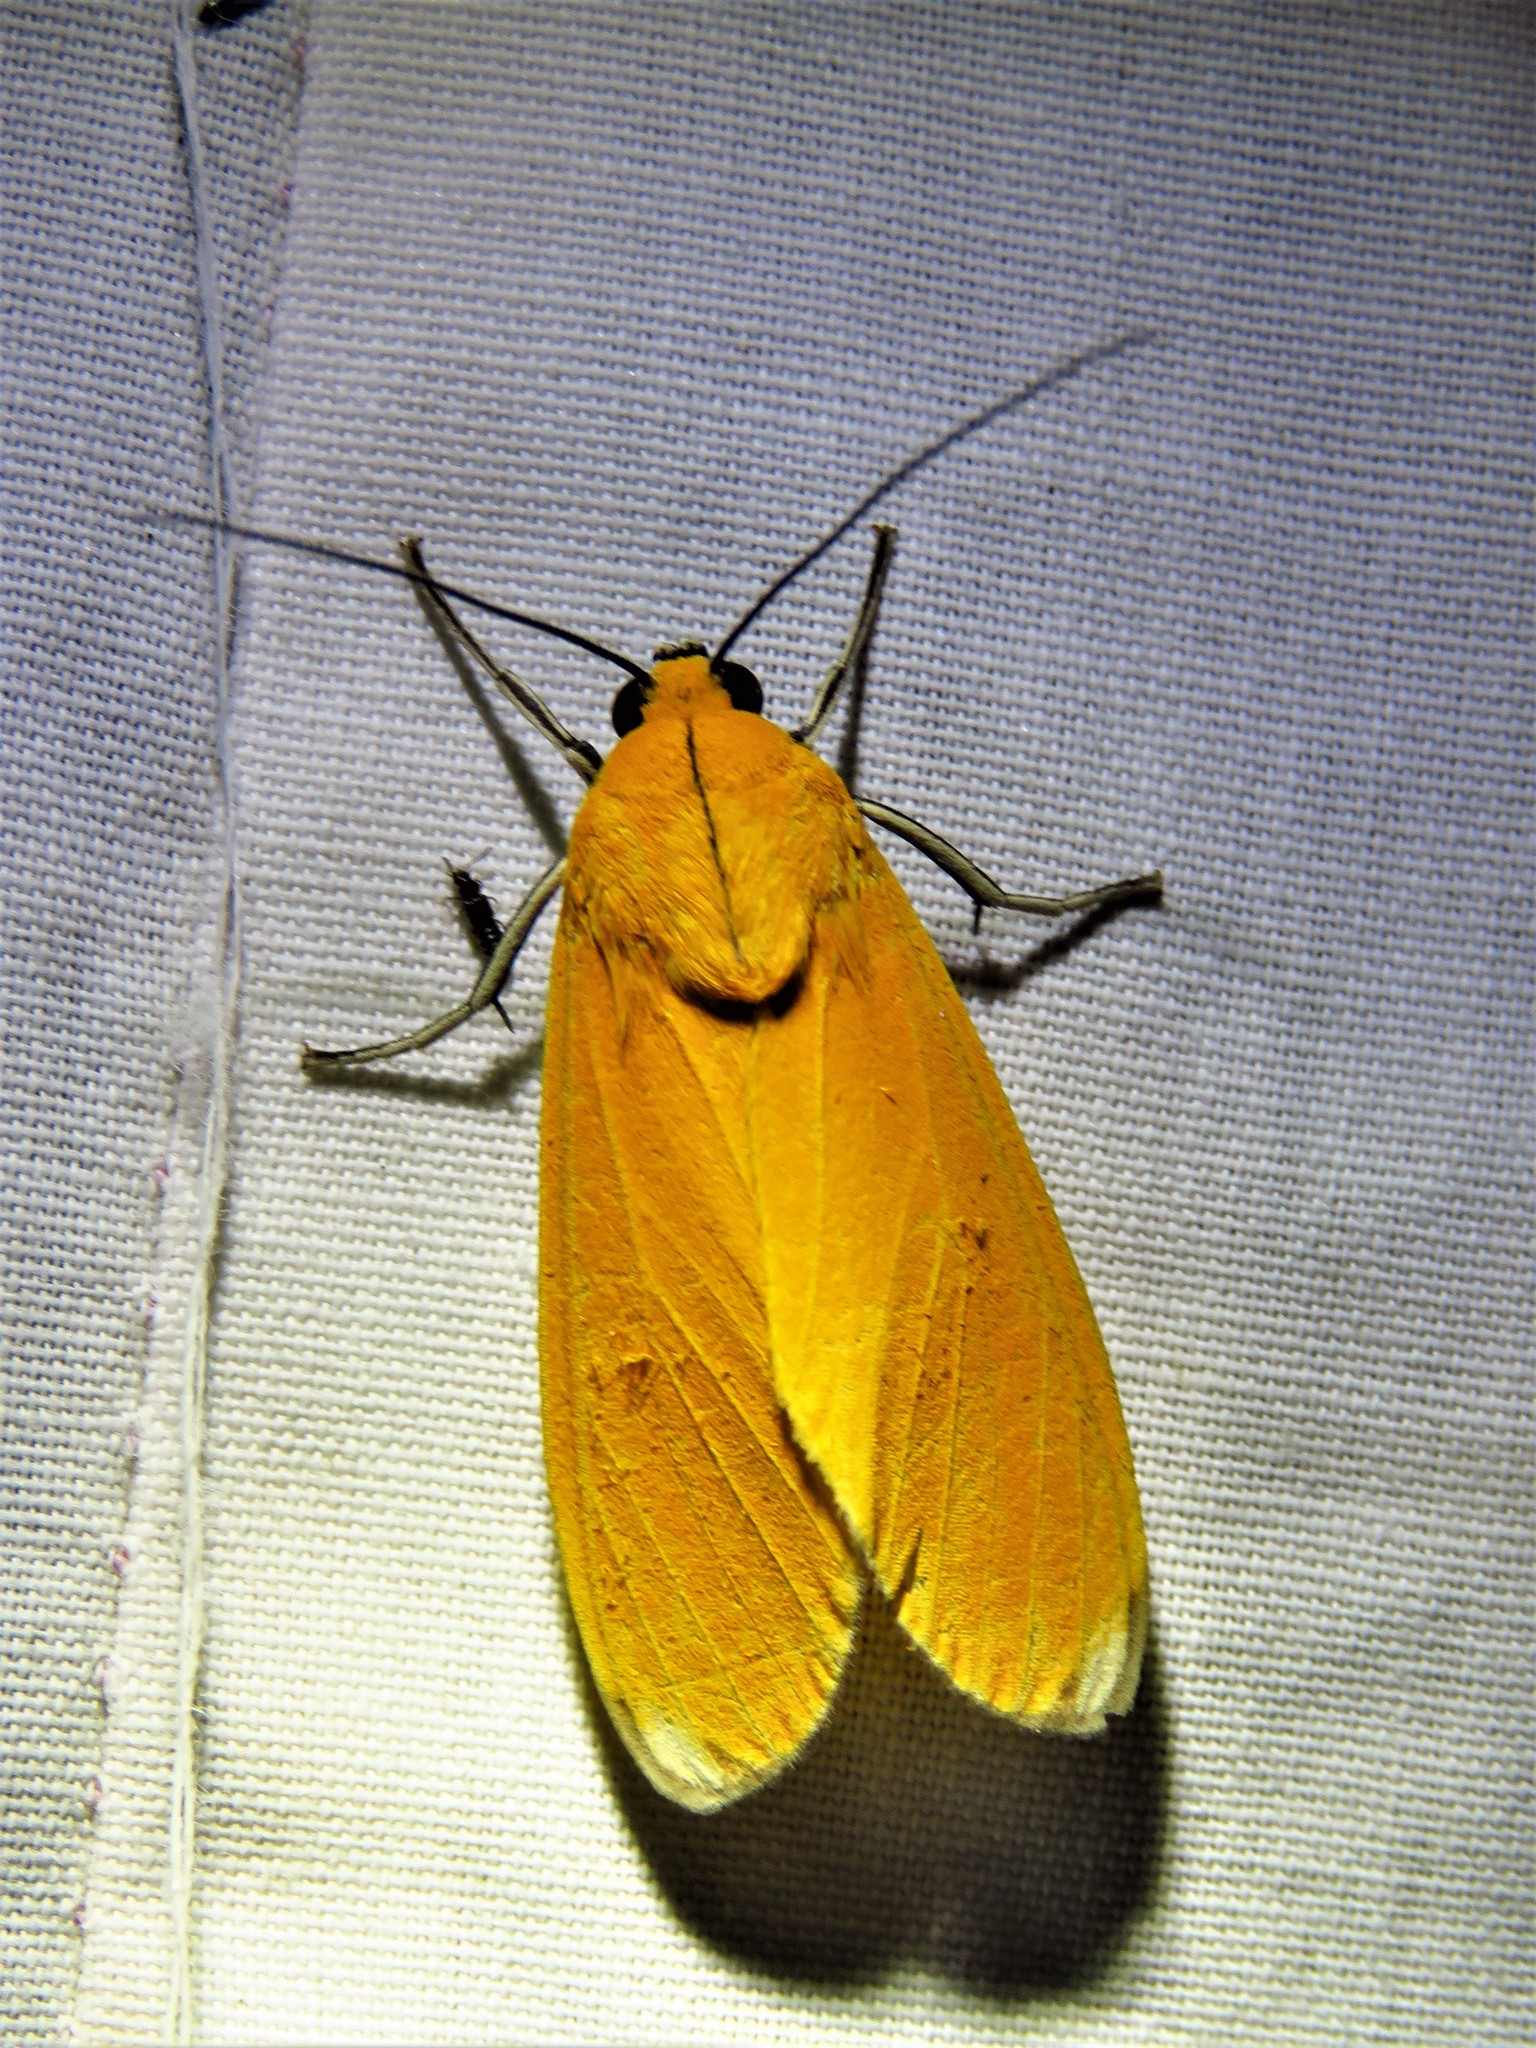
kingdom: Animalia
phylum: Arthropoda
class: Insecta
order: Lepidoptera
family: Erebidae
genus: Ormetica
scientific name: Ormetica sicilia
